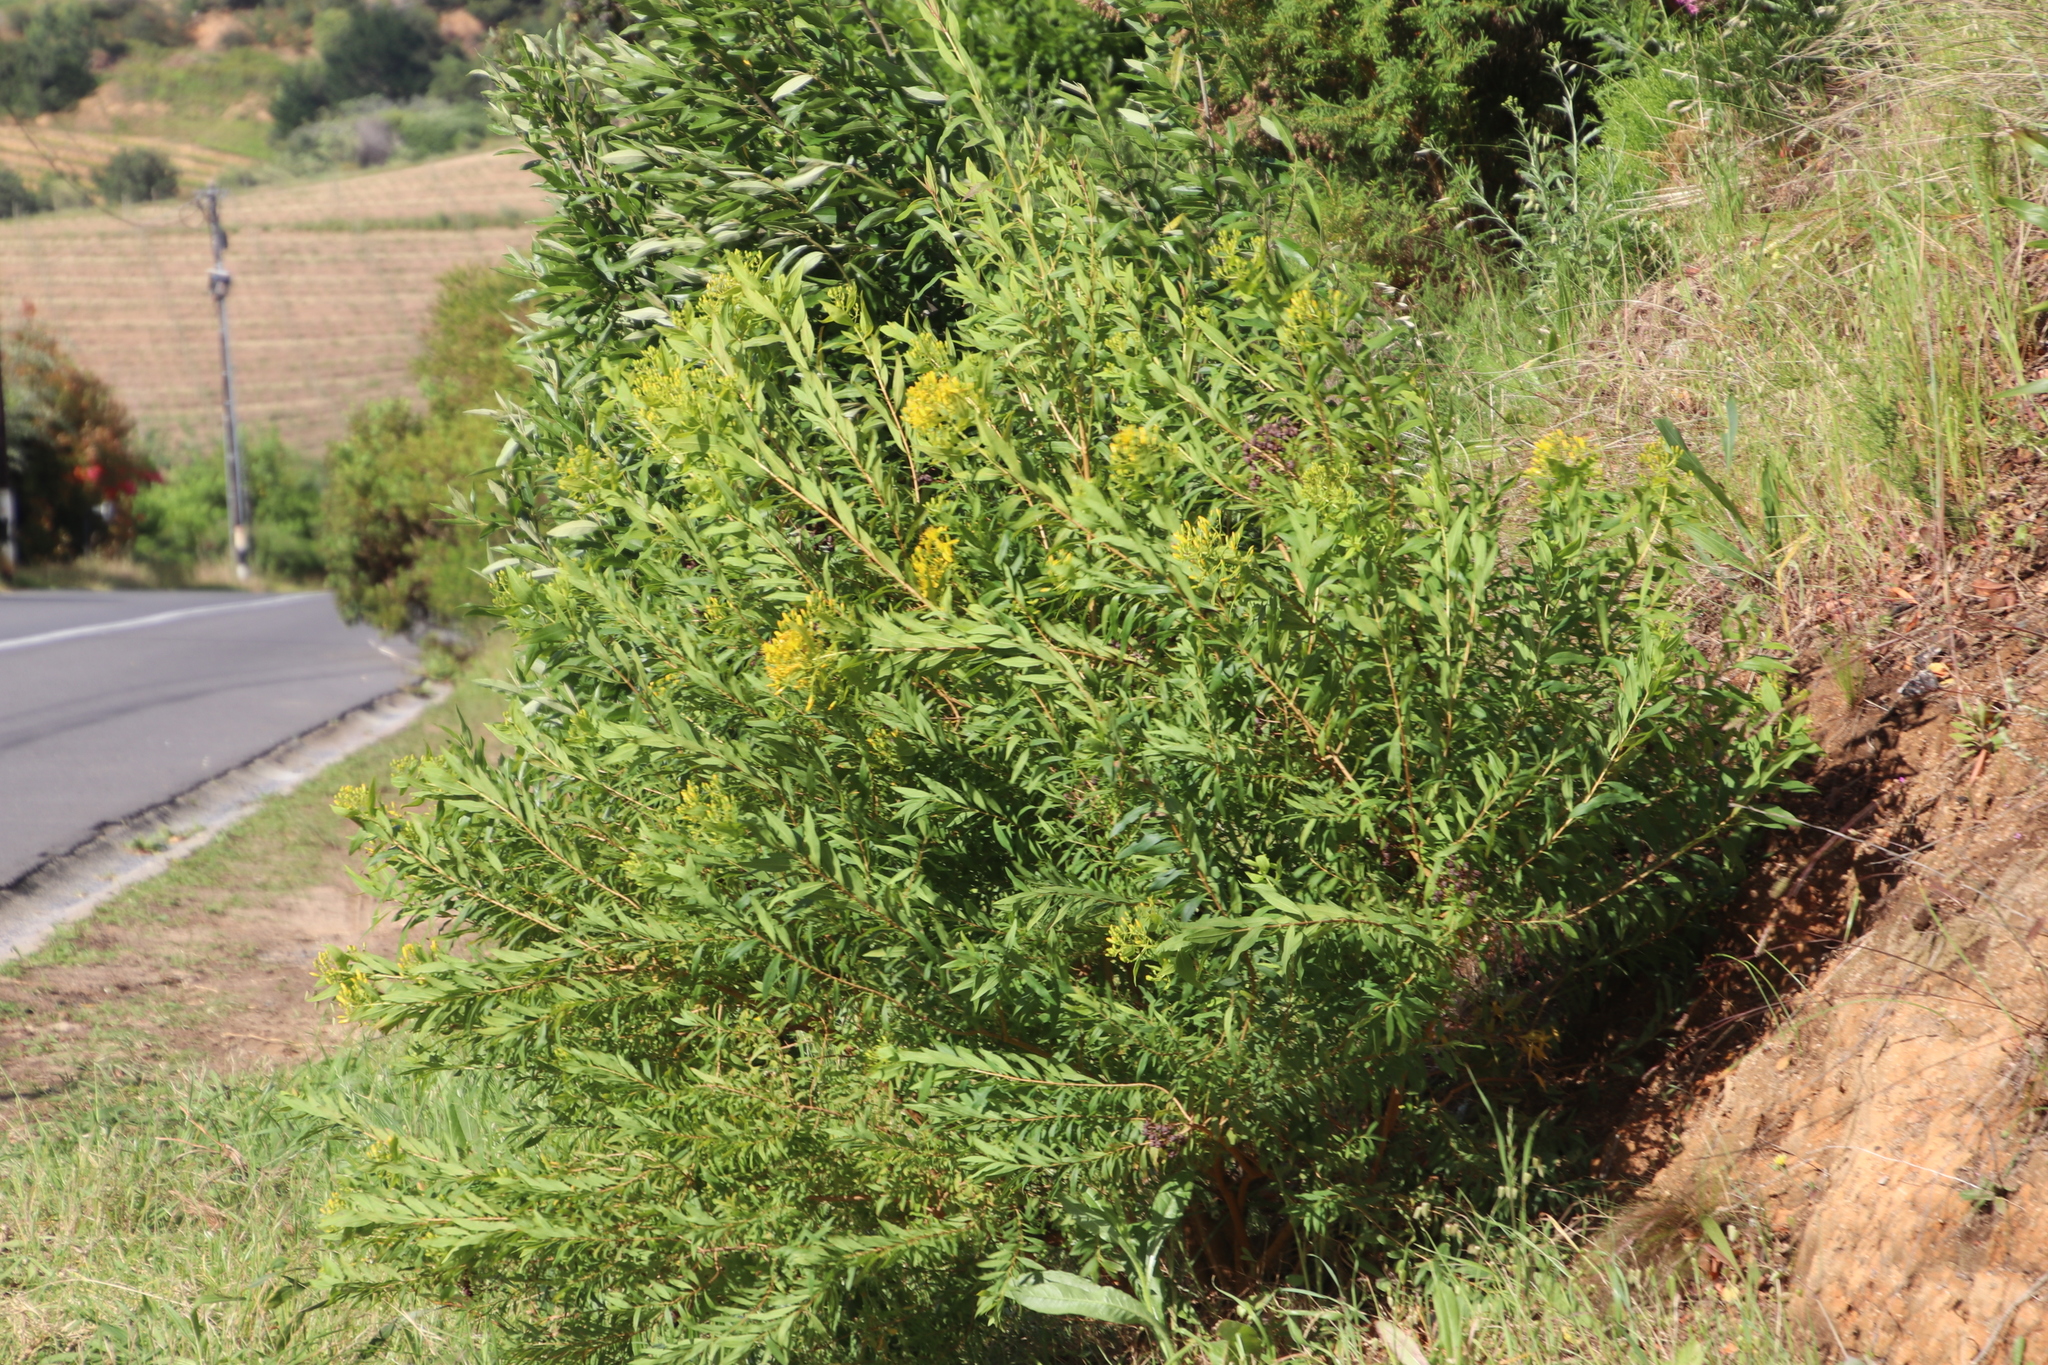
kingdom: Plantae
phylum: Tracheophyta
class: Magnoliopsida
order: Malpighiales
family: Hypericaceae
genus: Hypericum
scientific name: Hypericum canariense
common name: Canary island st. johnswort
